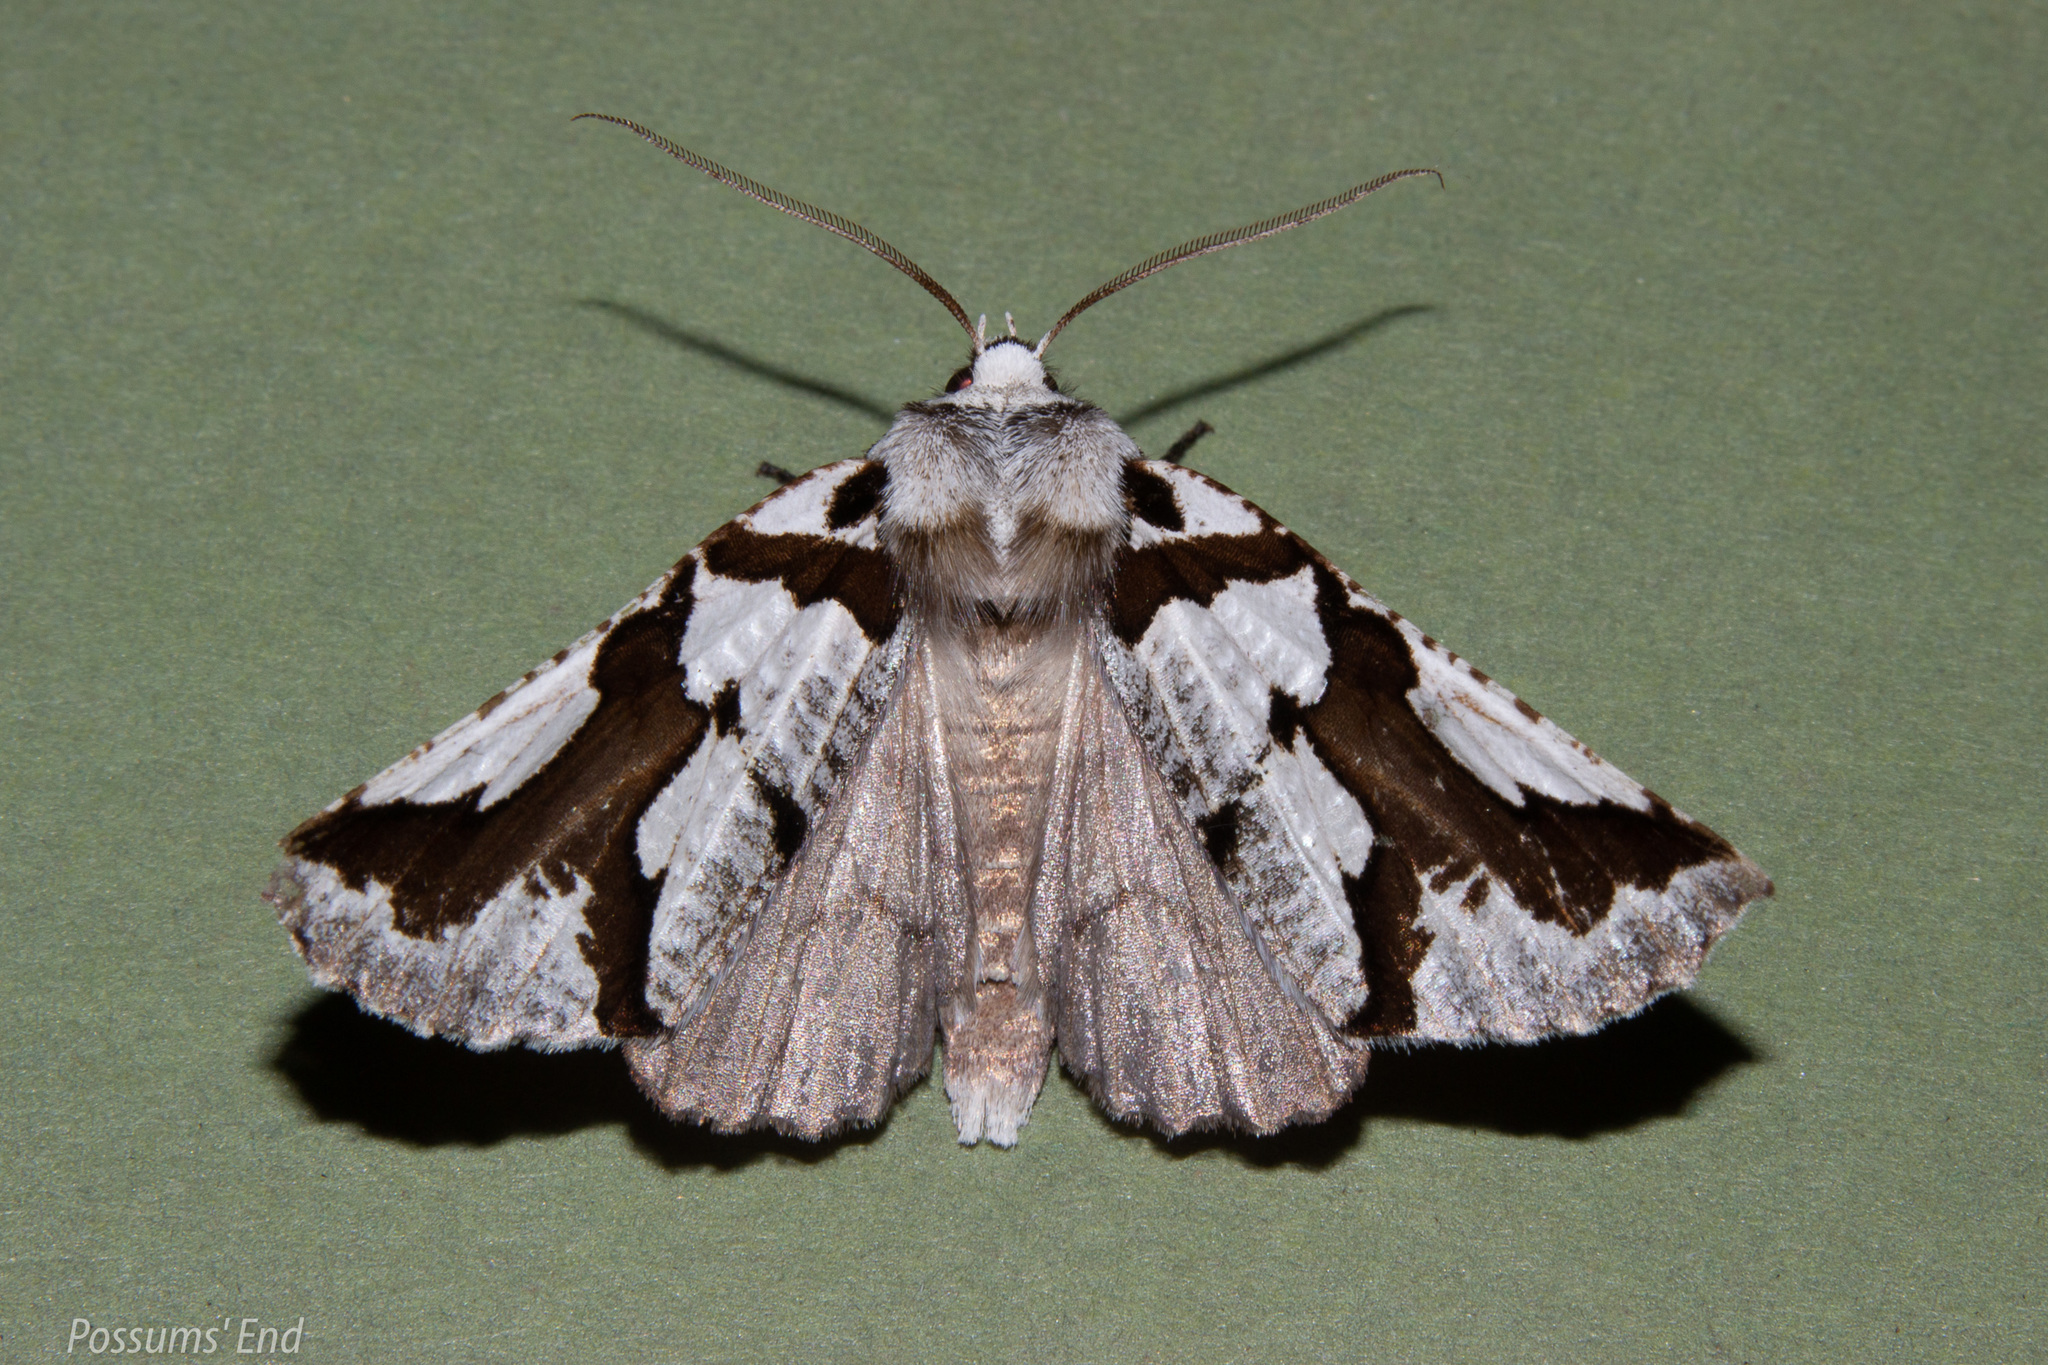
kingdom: Animalia
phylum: Arthropoda
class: Insecta
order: Lepidoptera
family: Geometridae
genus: Declana
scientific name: Declana
